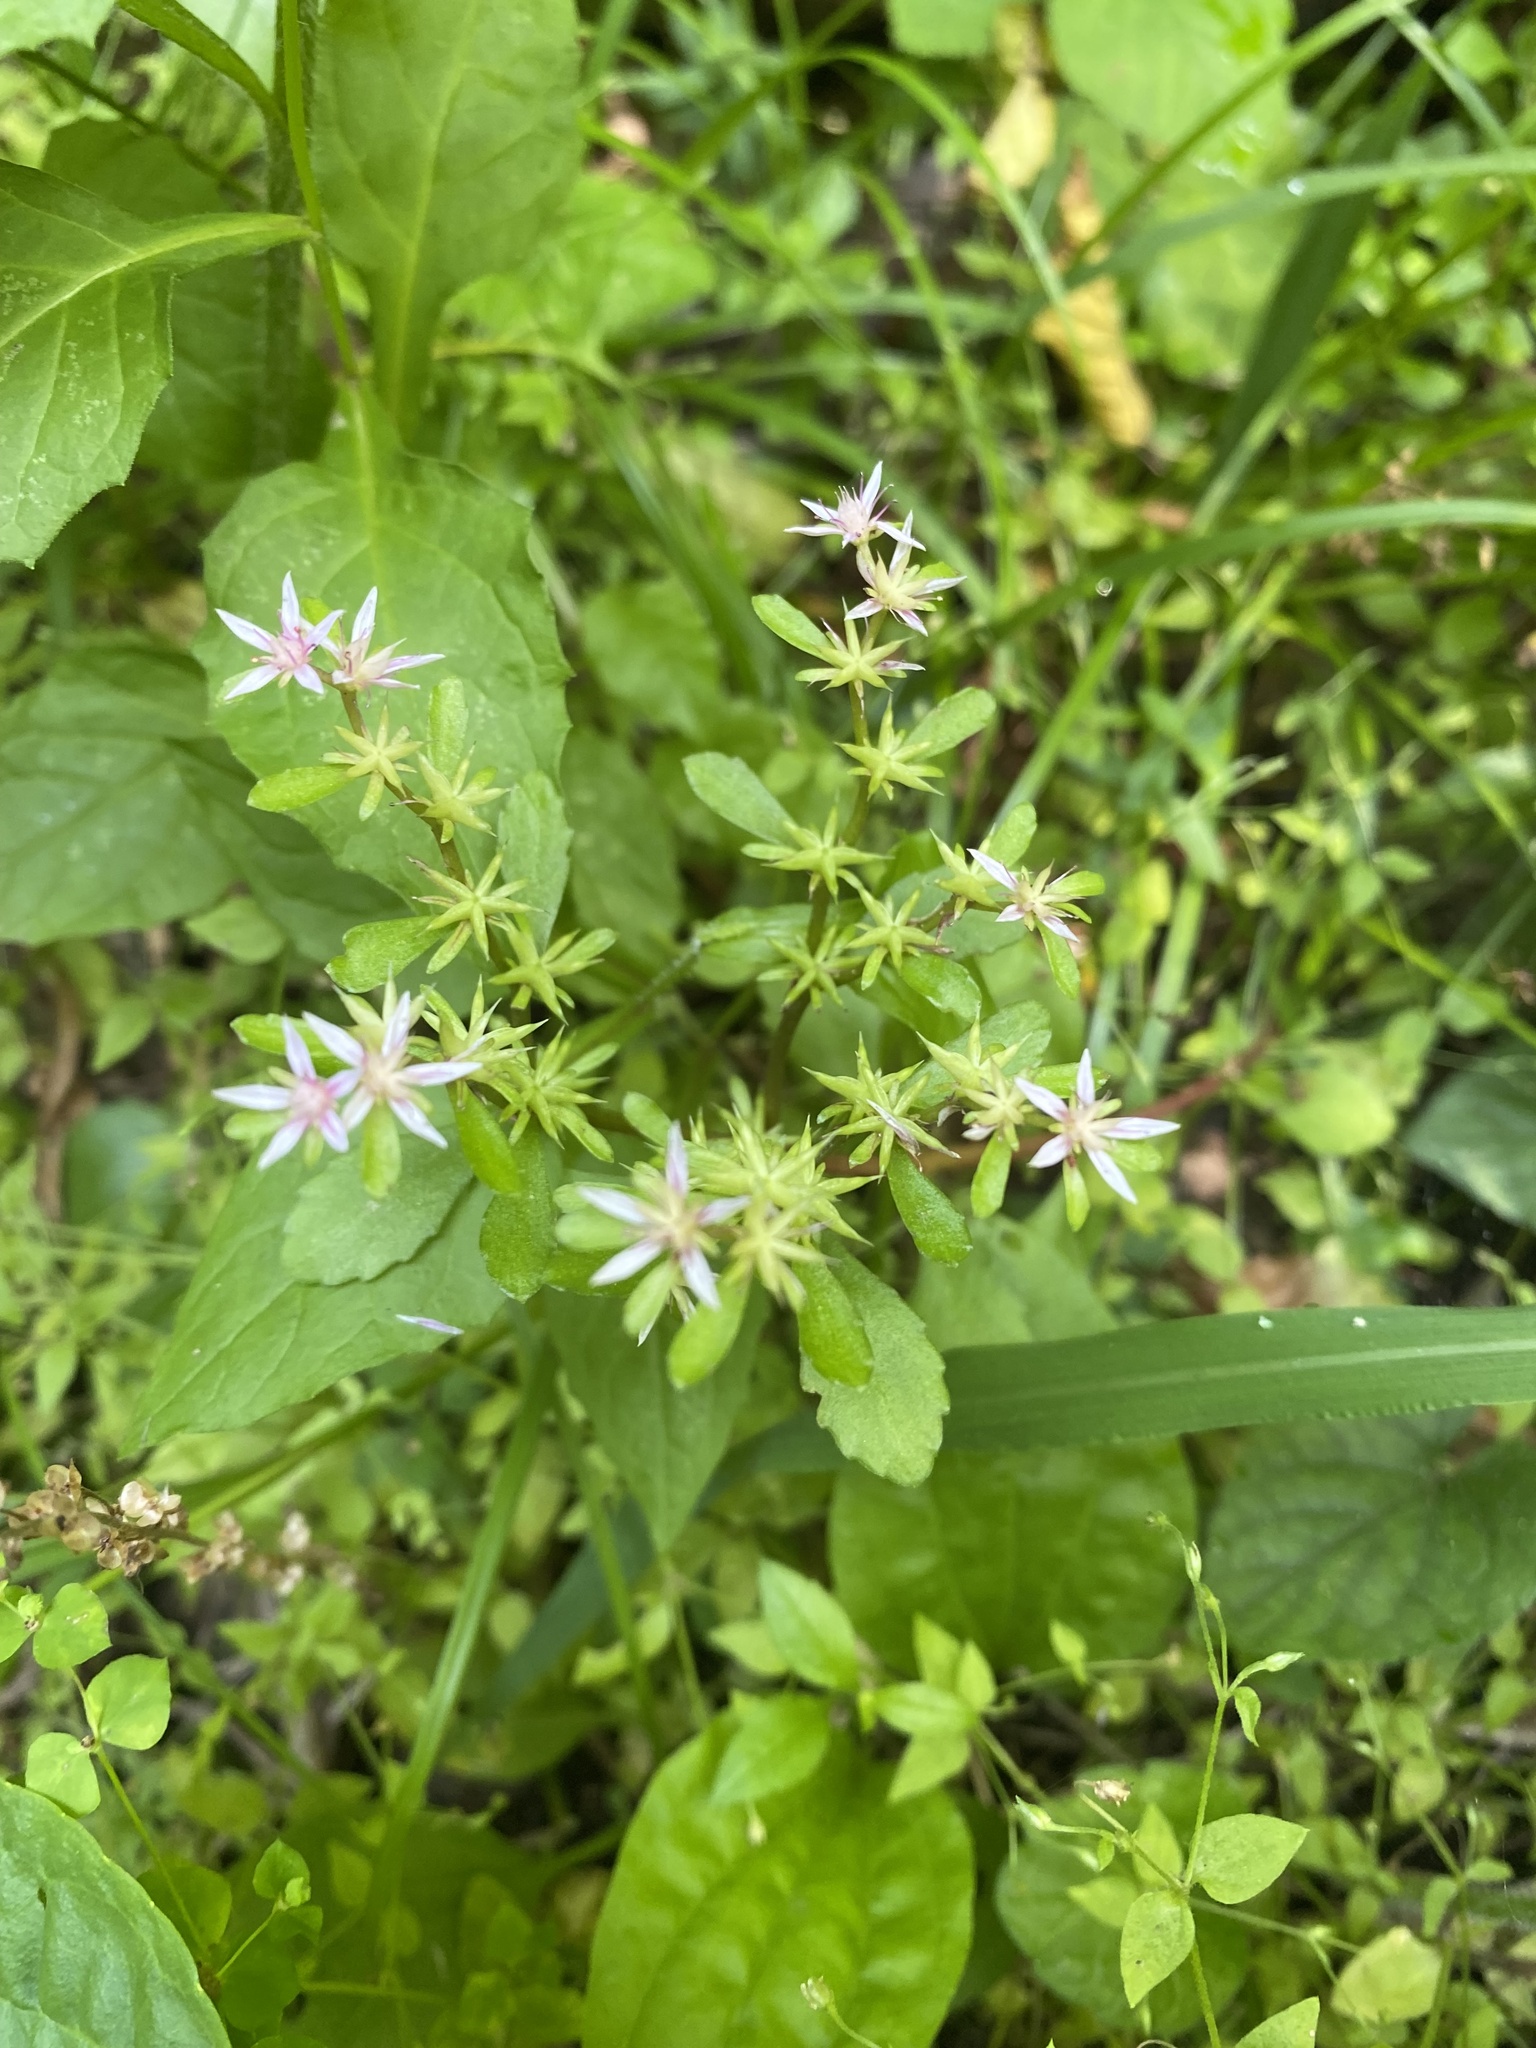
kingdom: Plantae
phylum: Tracheophyta
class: Magnoliopsida
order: Saxifragales
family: Crassulaceae
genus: Phedimus
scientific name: Phedimus stolonifer
